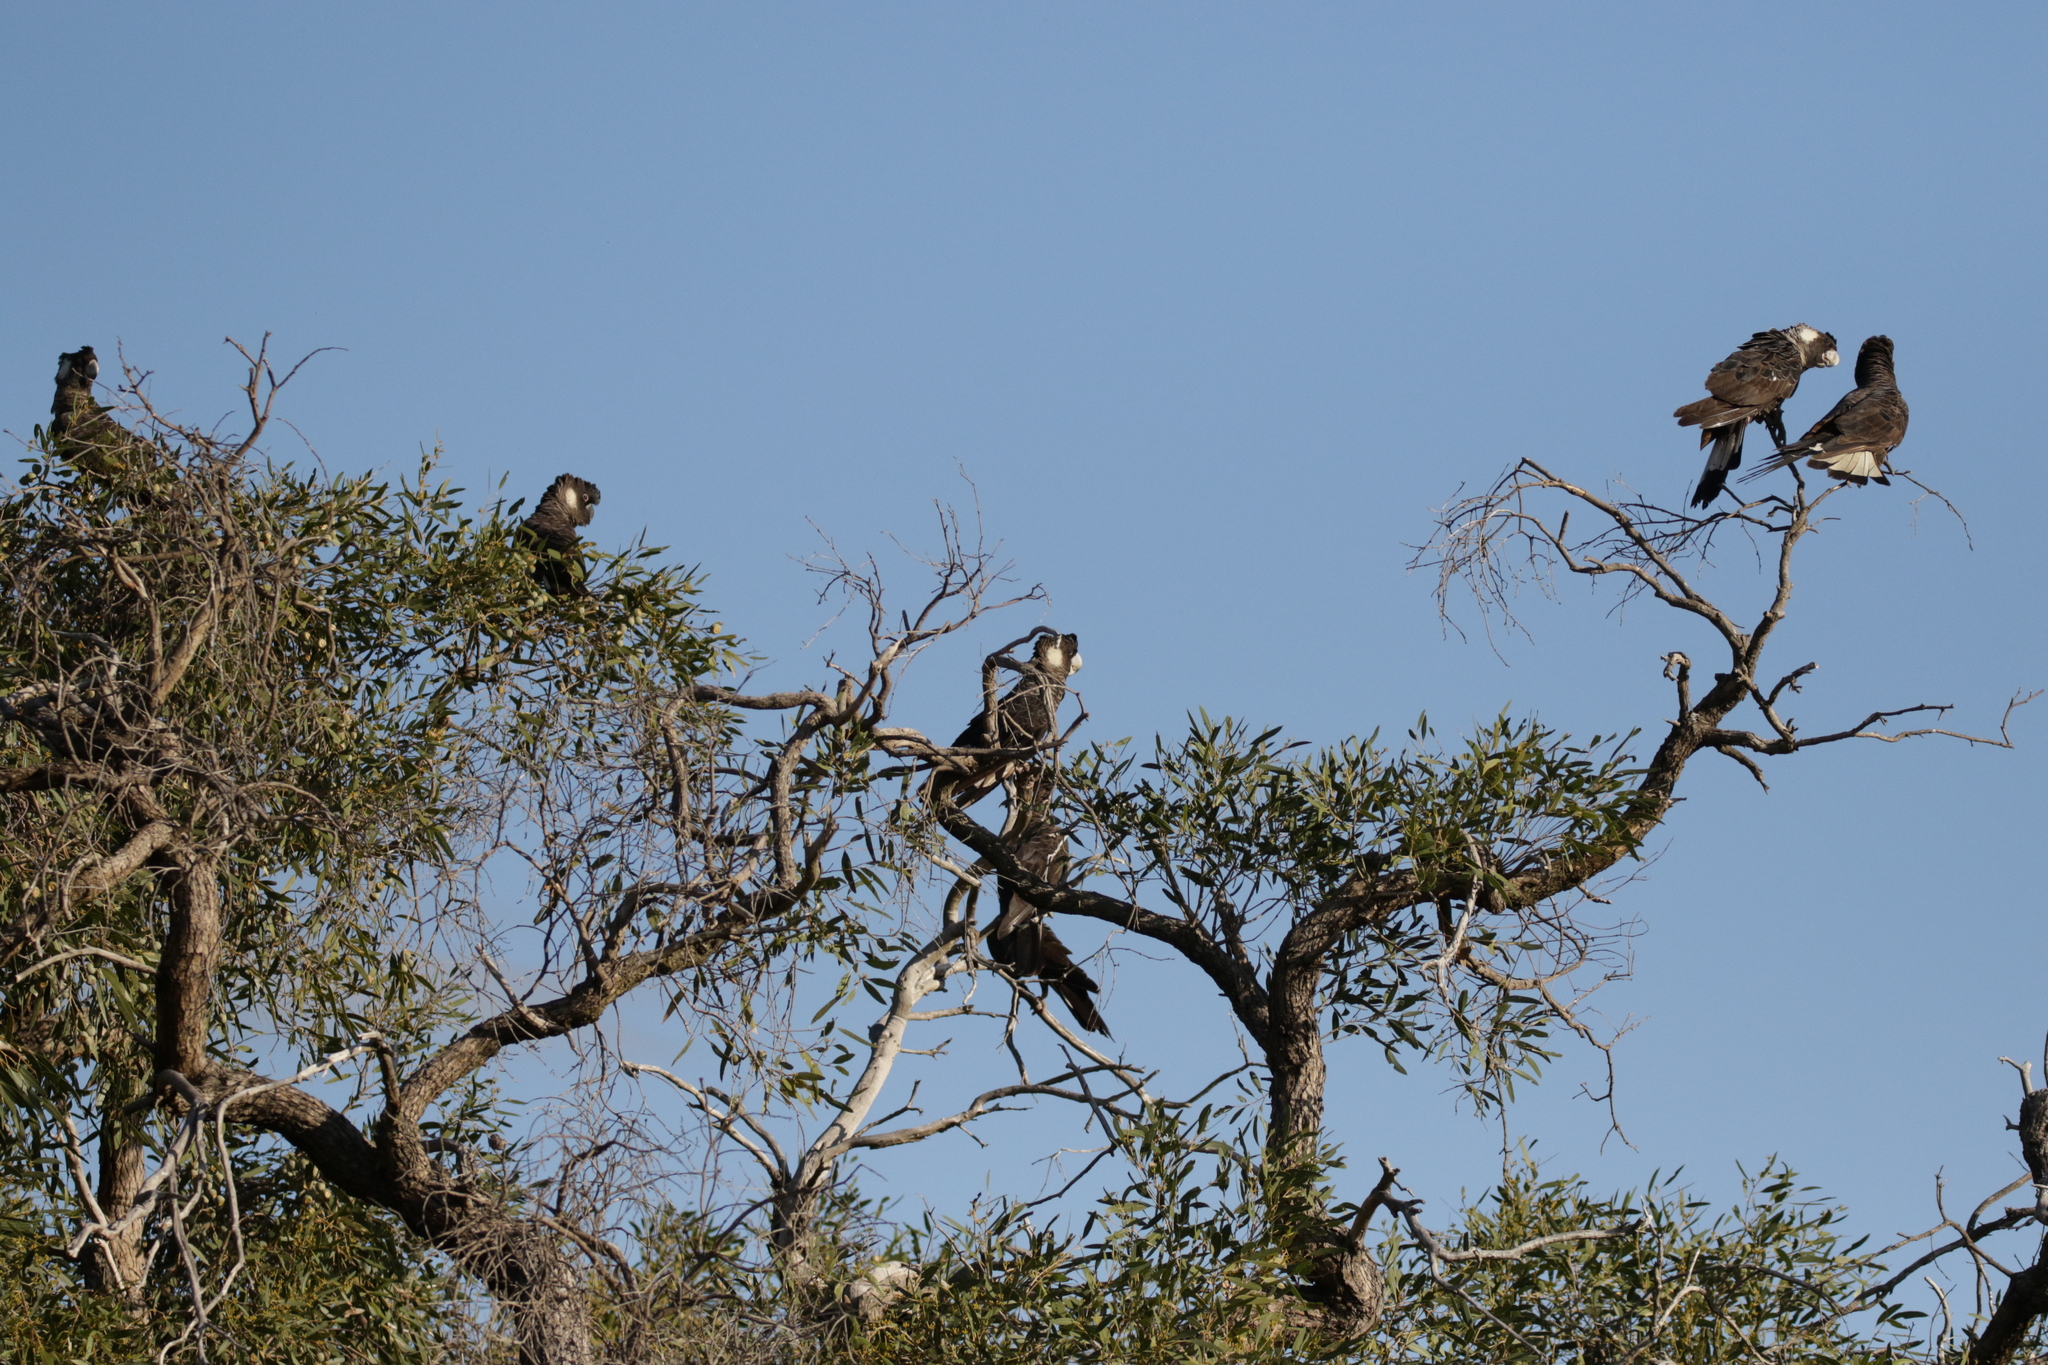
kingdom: Animalia
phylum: Chordata
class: Aves
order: Psittaciformes
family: Cacatuidae
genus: Zanda
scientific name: Zanda latirostris
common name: Short-billed black-cockatoo
